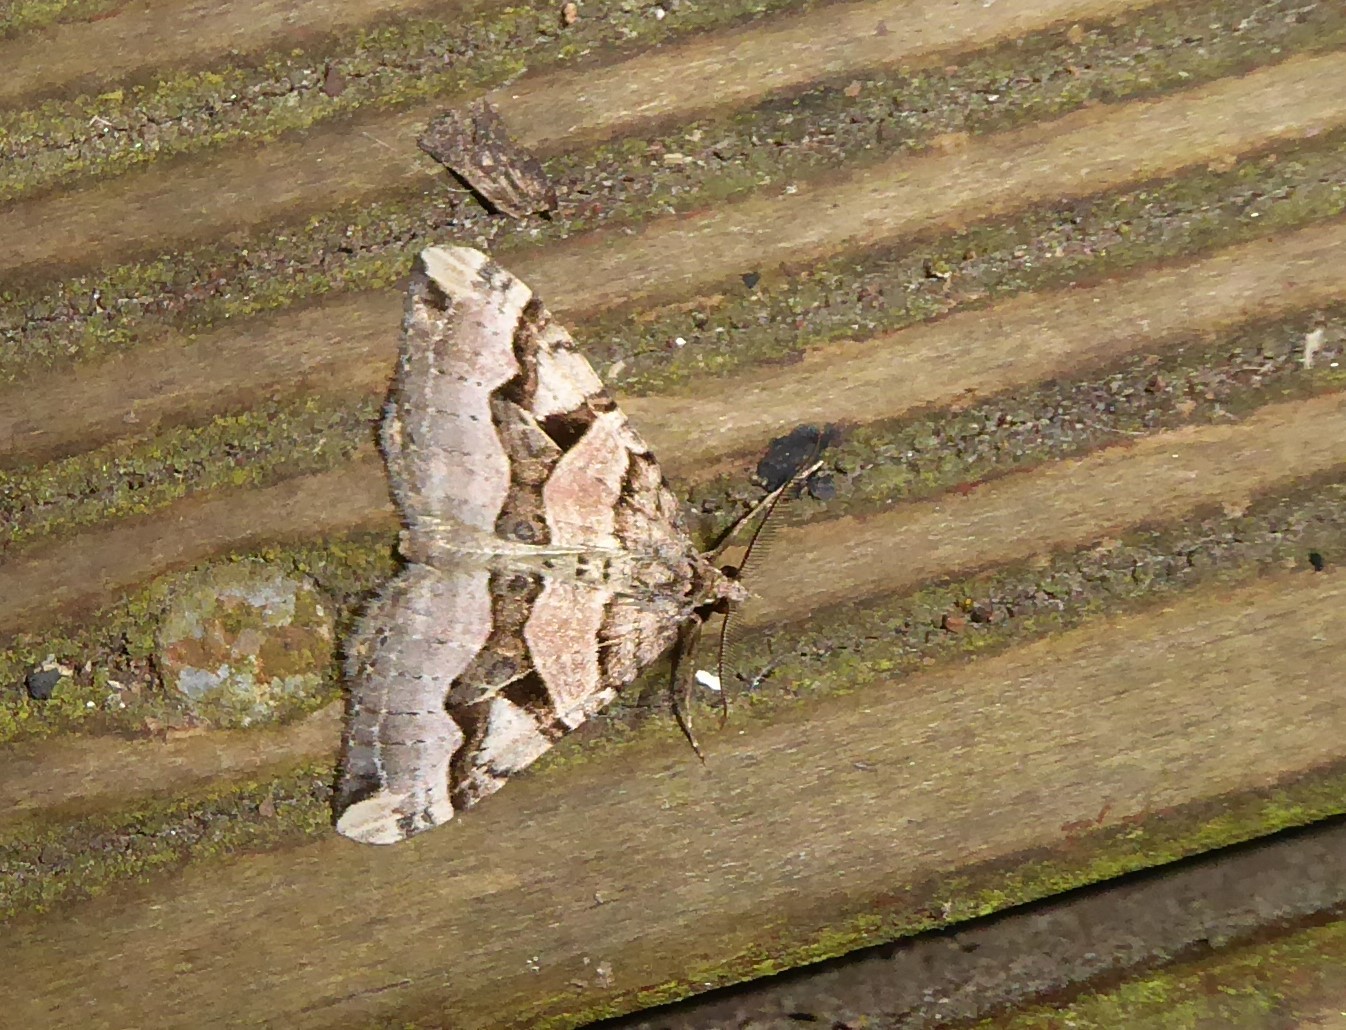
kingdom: Animalia
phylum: Arthropoda
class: Insecta
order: Lepidoptera
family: Geometridae
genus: Xanthorhoe
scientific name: Xanthorhoe semifissata
